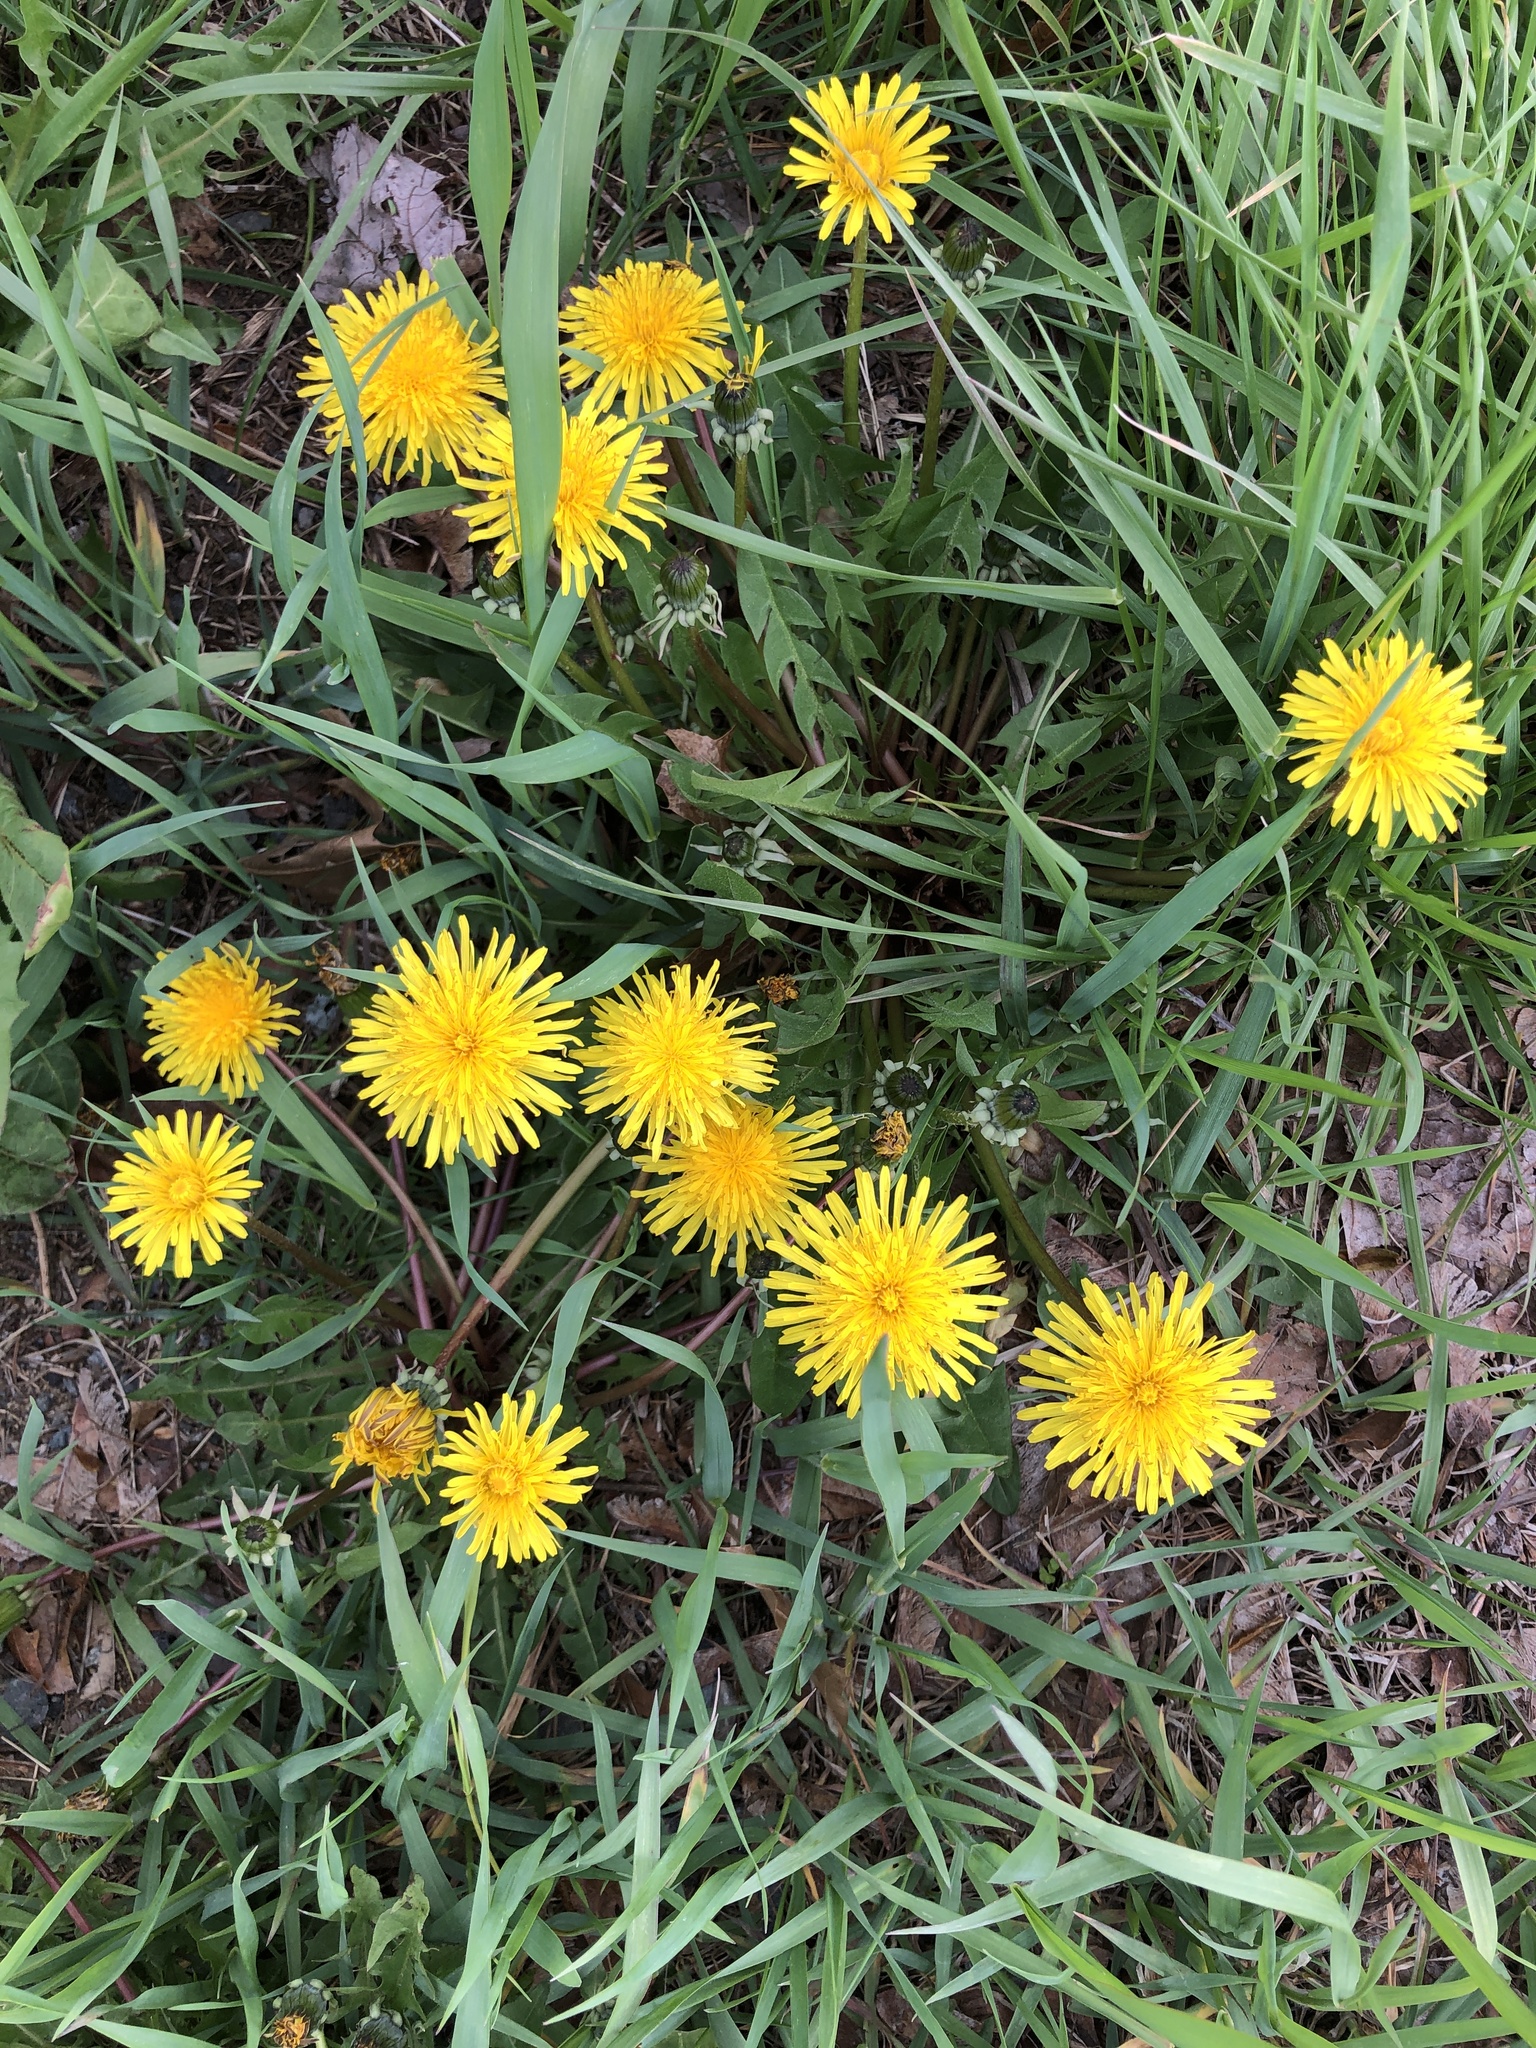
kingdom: Plantae
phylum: Tracheophyta
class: Magnoliopsida
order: Asterales
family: Asteraceae
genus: Taraxacum
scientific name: Taraxacum officinale
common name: Common dandelion
